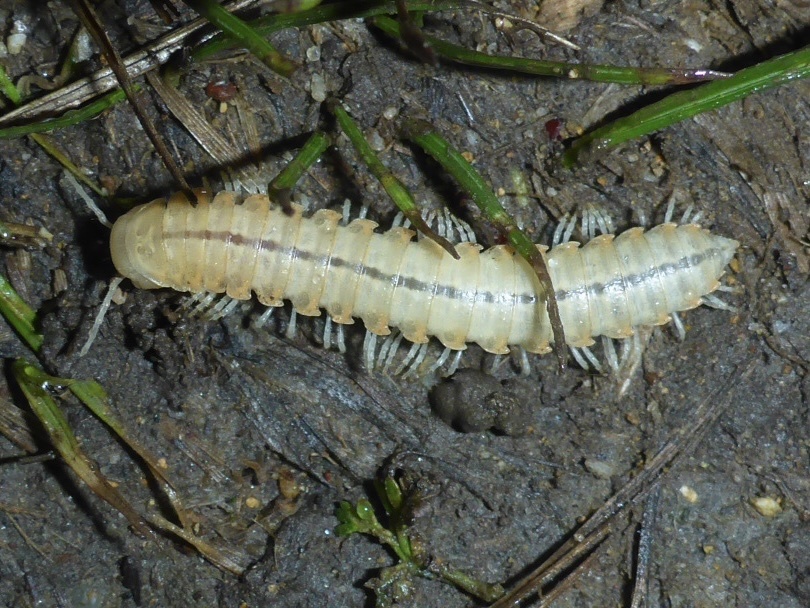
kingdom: Animalia
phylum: Arthropoda
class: Diplopoda
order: Polydesmida
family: Xystodesmidae
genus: Xystocheir
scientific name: Xystocheir dissecta
